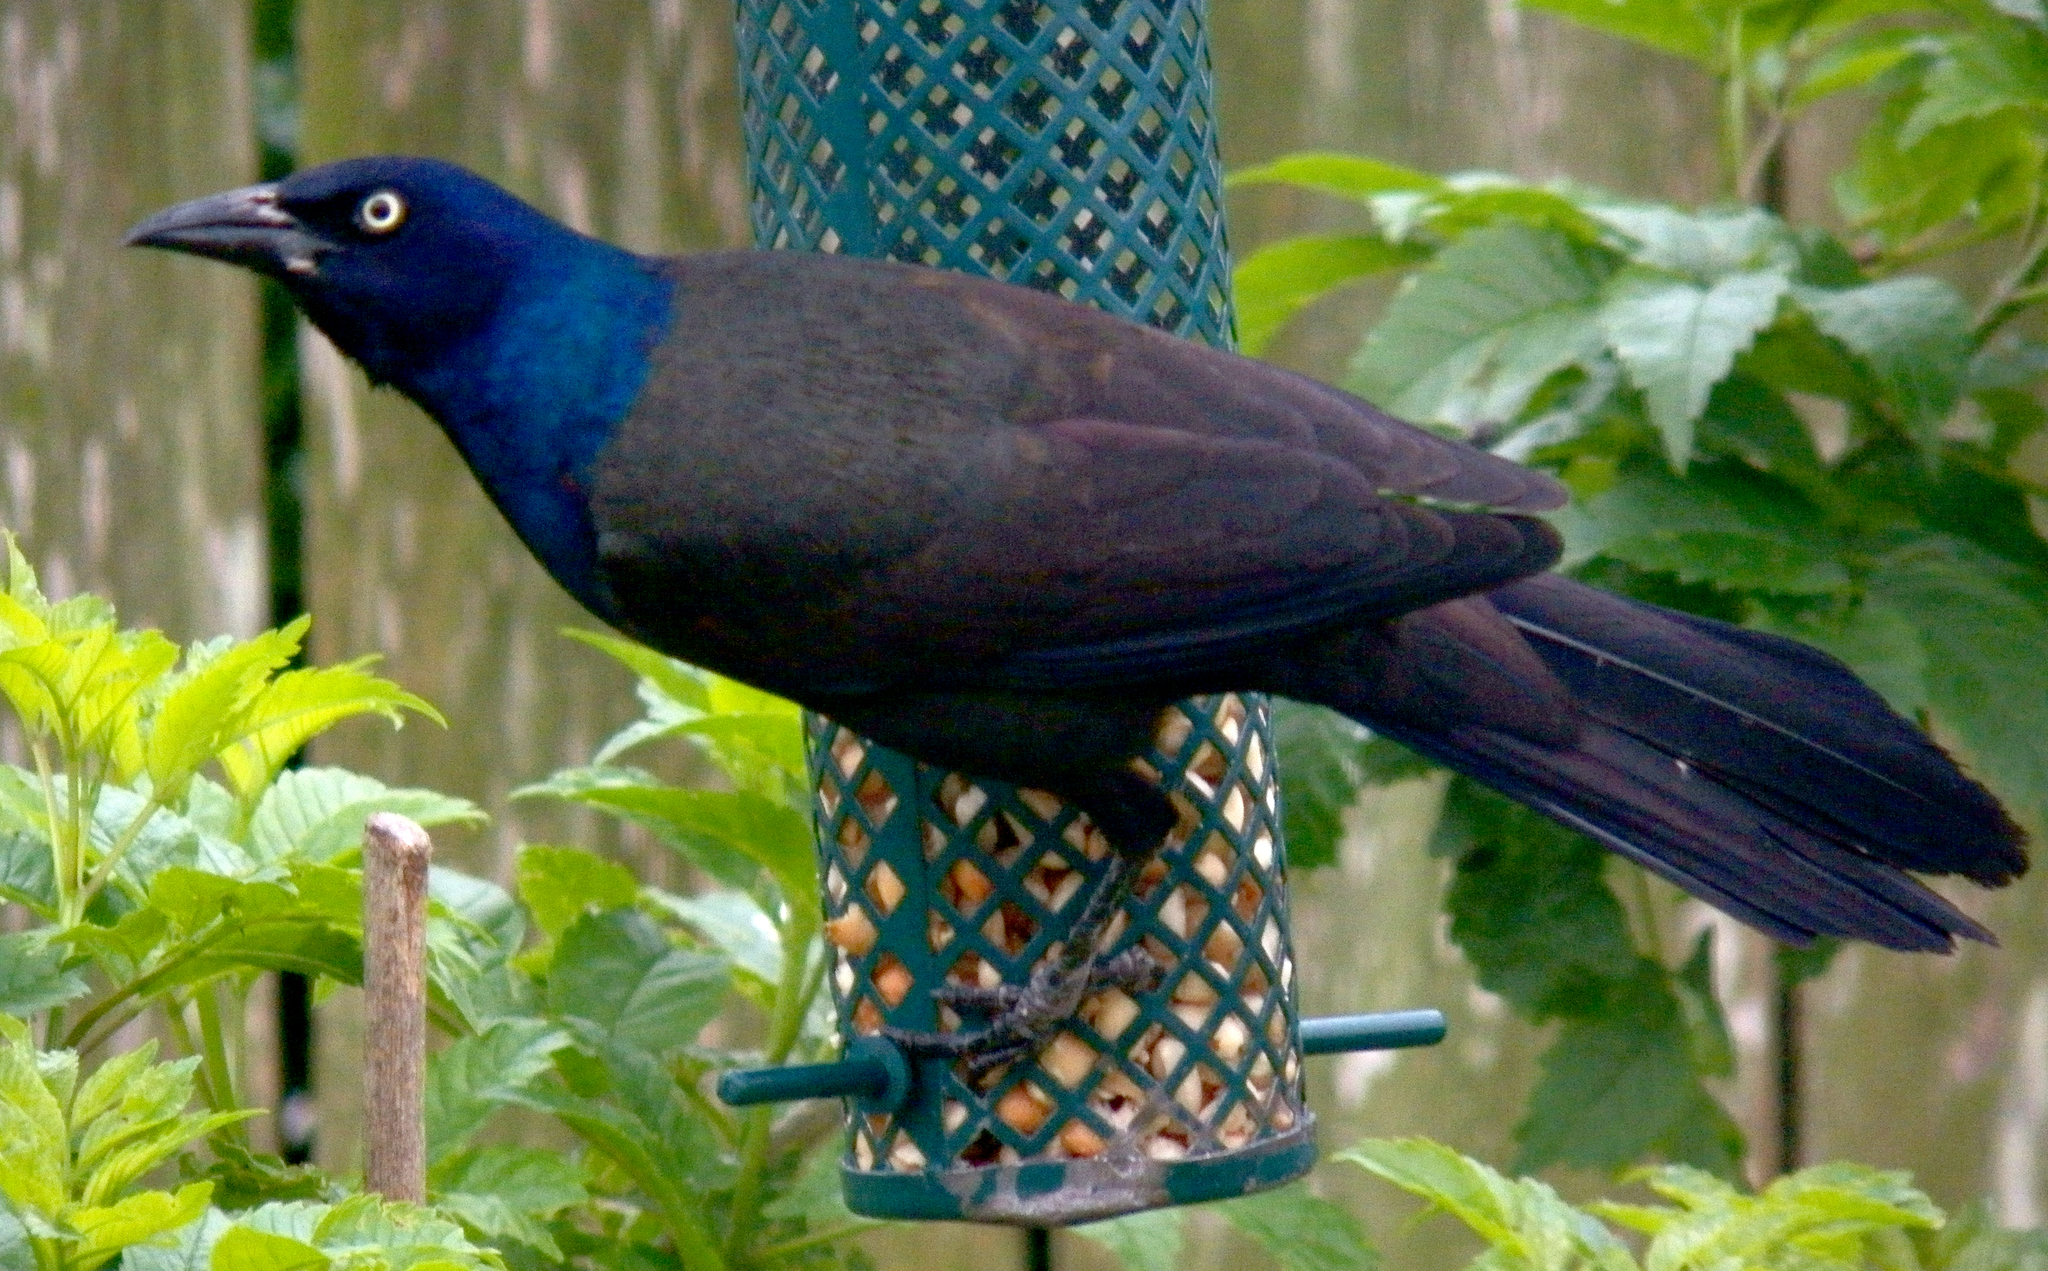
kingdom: Animalia
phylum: Chordata
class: Aves
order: Passeriformes
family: Icteridae
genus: Quiscalus
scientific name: Quiscalus quiscula
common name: Common grackle
